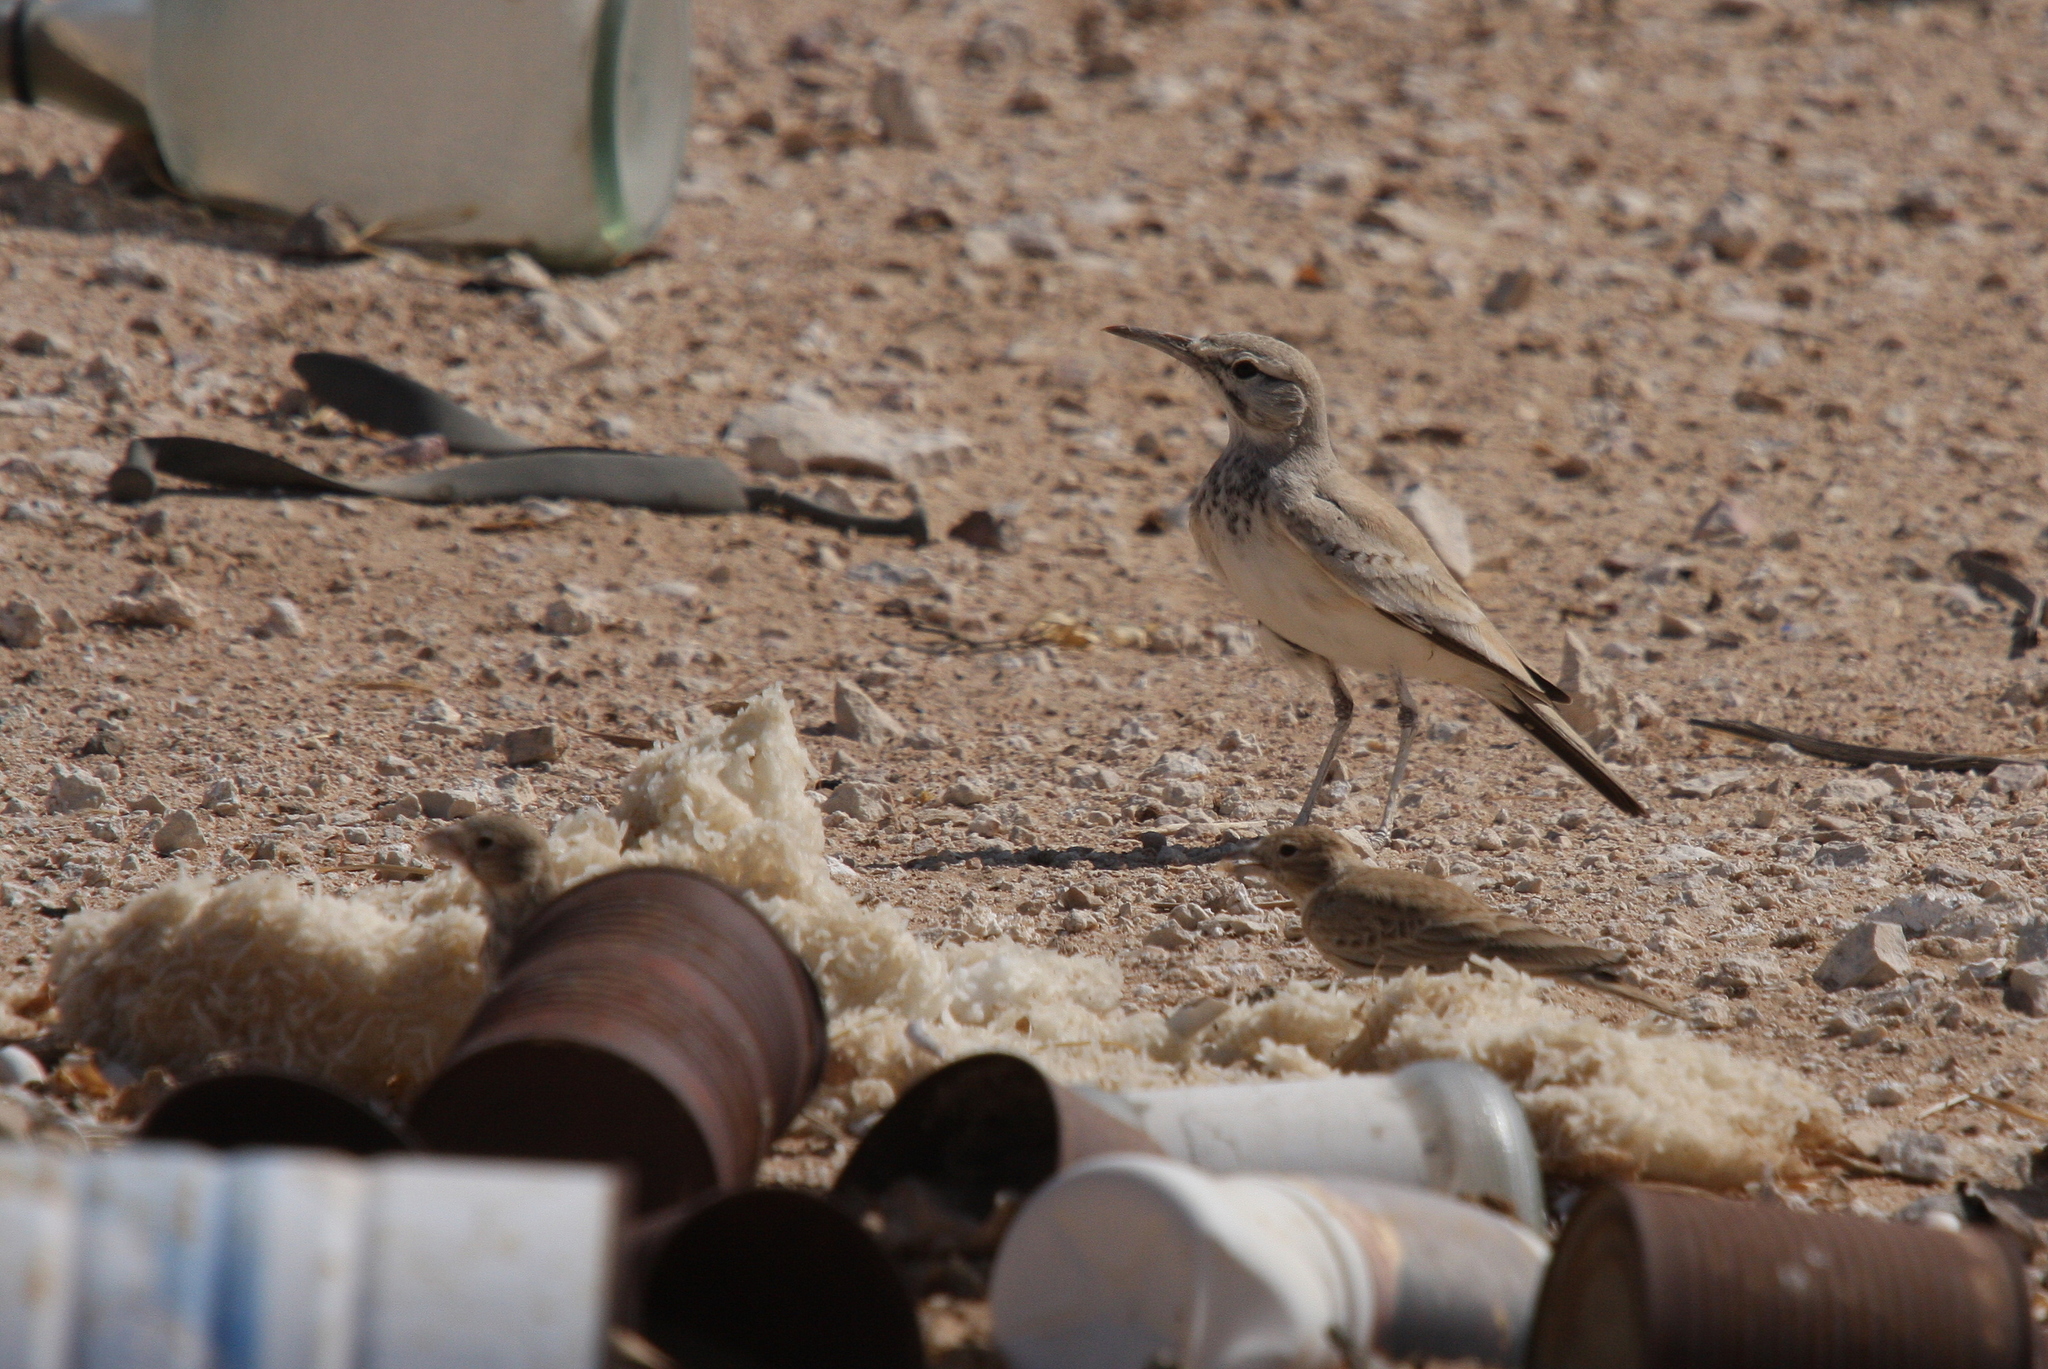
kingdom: Animalia
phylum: Chordata
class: Aves
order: Passeriformes
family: Alaudidae
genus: Alaemon
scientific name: Alaemon alaudipes
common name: Greater hoopoe-lark
